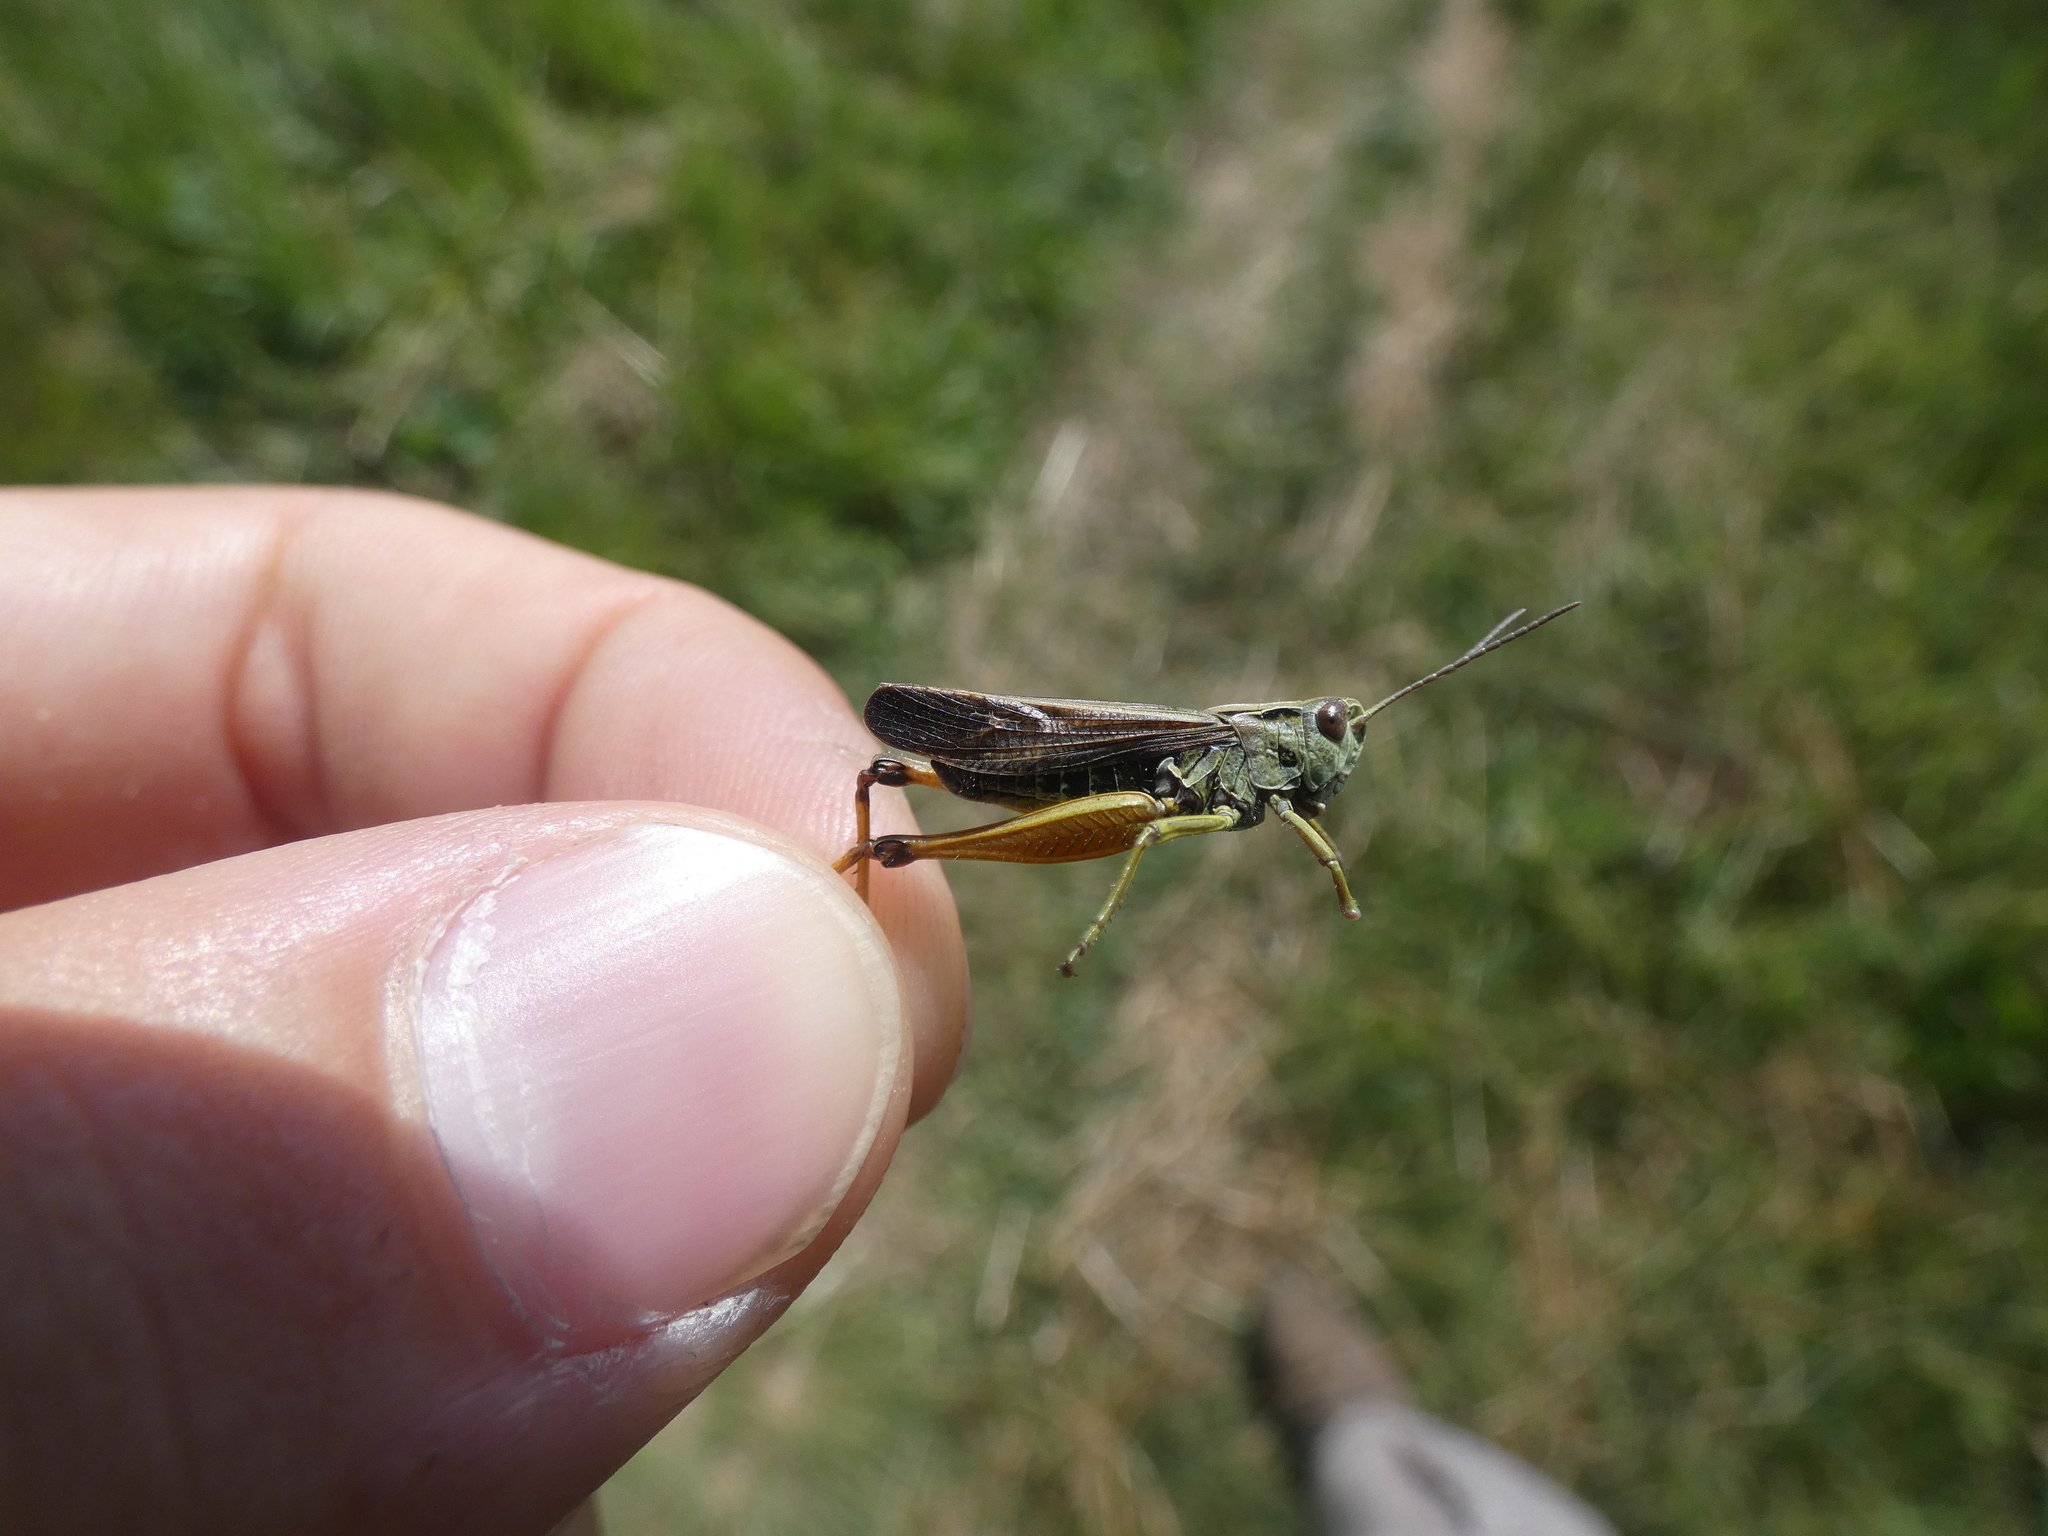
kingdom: Animalia
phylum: Arthropoda
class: Insecta
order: Orthoptera
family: Acrididae
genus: Omocestus
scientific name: Omocestus viridulus
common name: Common green grasshopper
